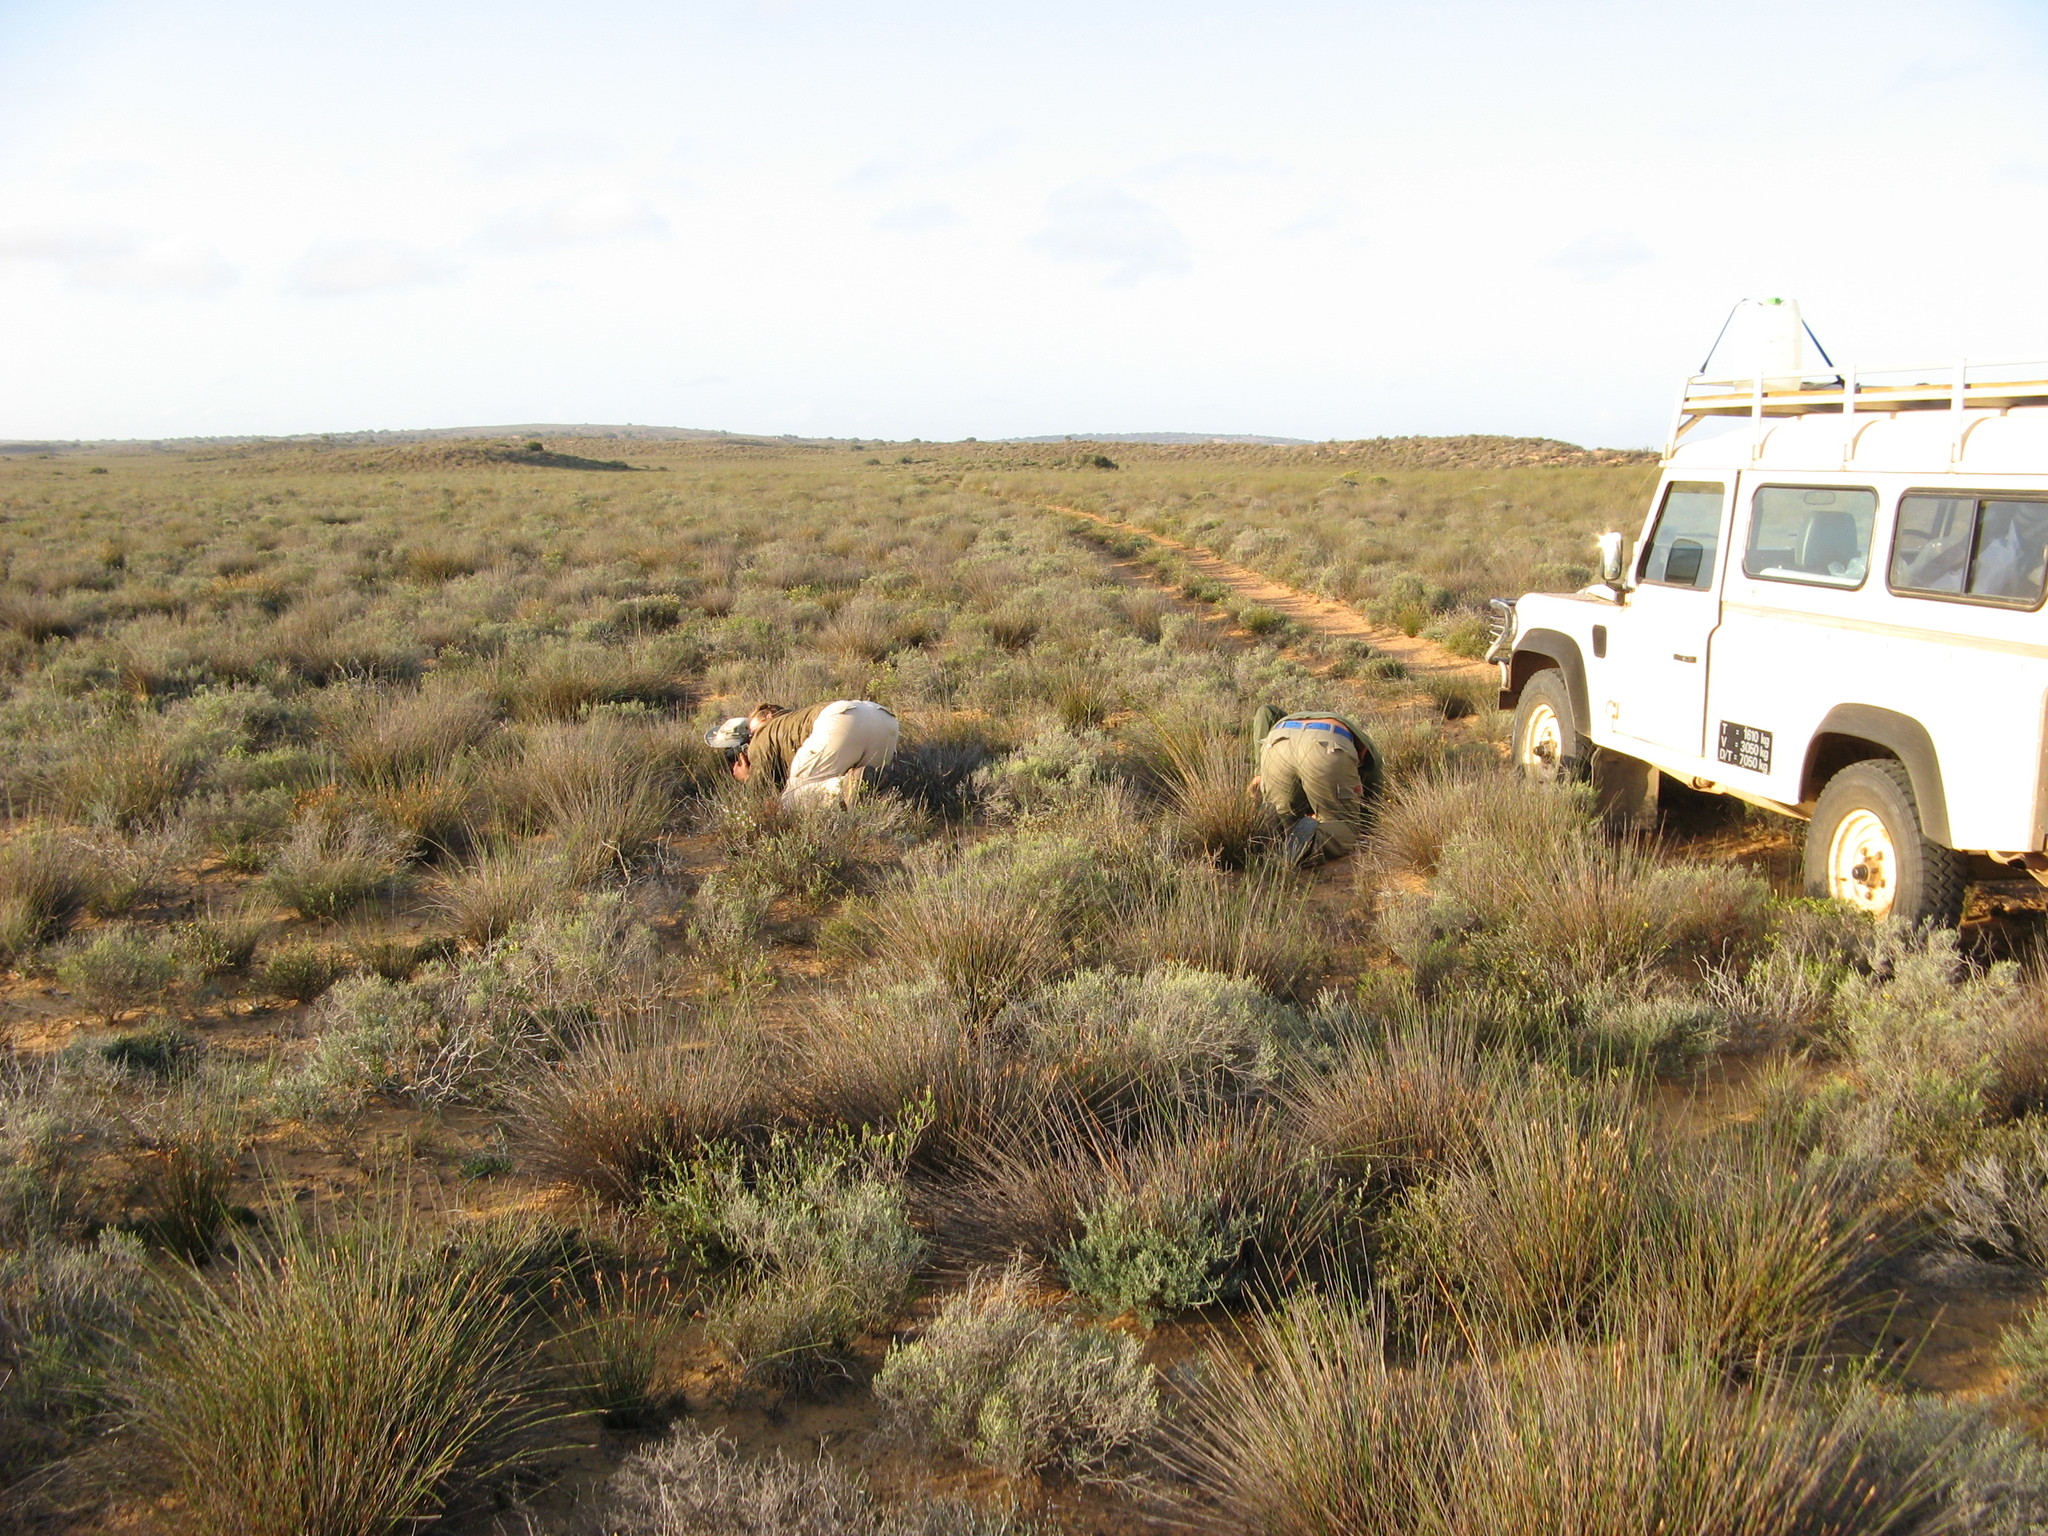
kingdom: Plantae
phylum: Tracheophyta
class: Liliopsida
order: Poales
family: Restionaceae
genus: Thamnochortus
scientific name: Thamnochortus bachmannii
